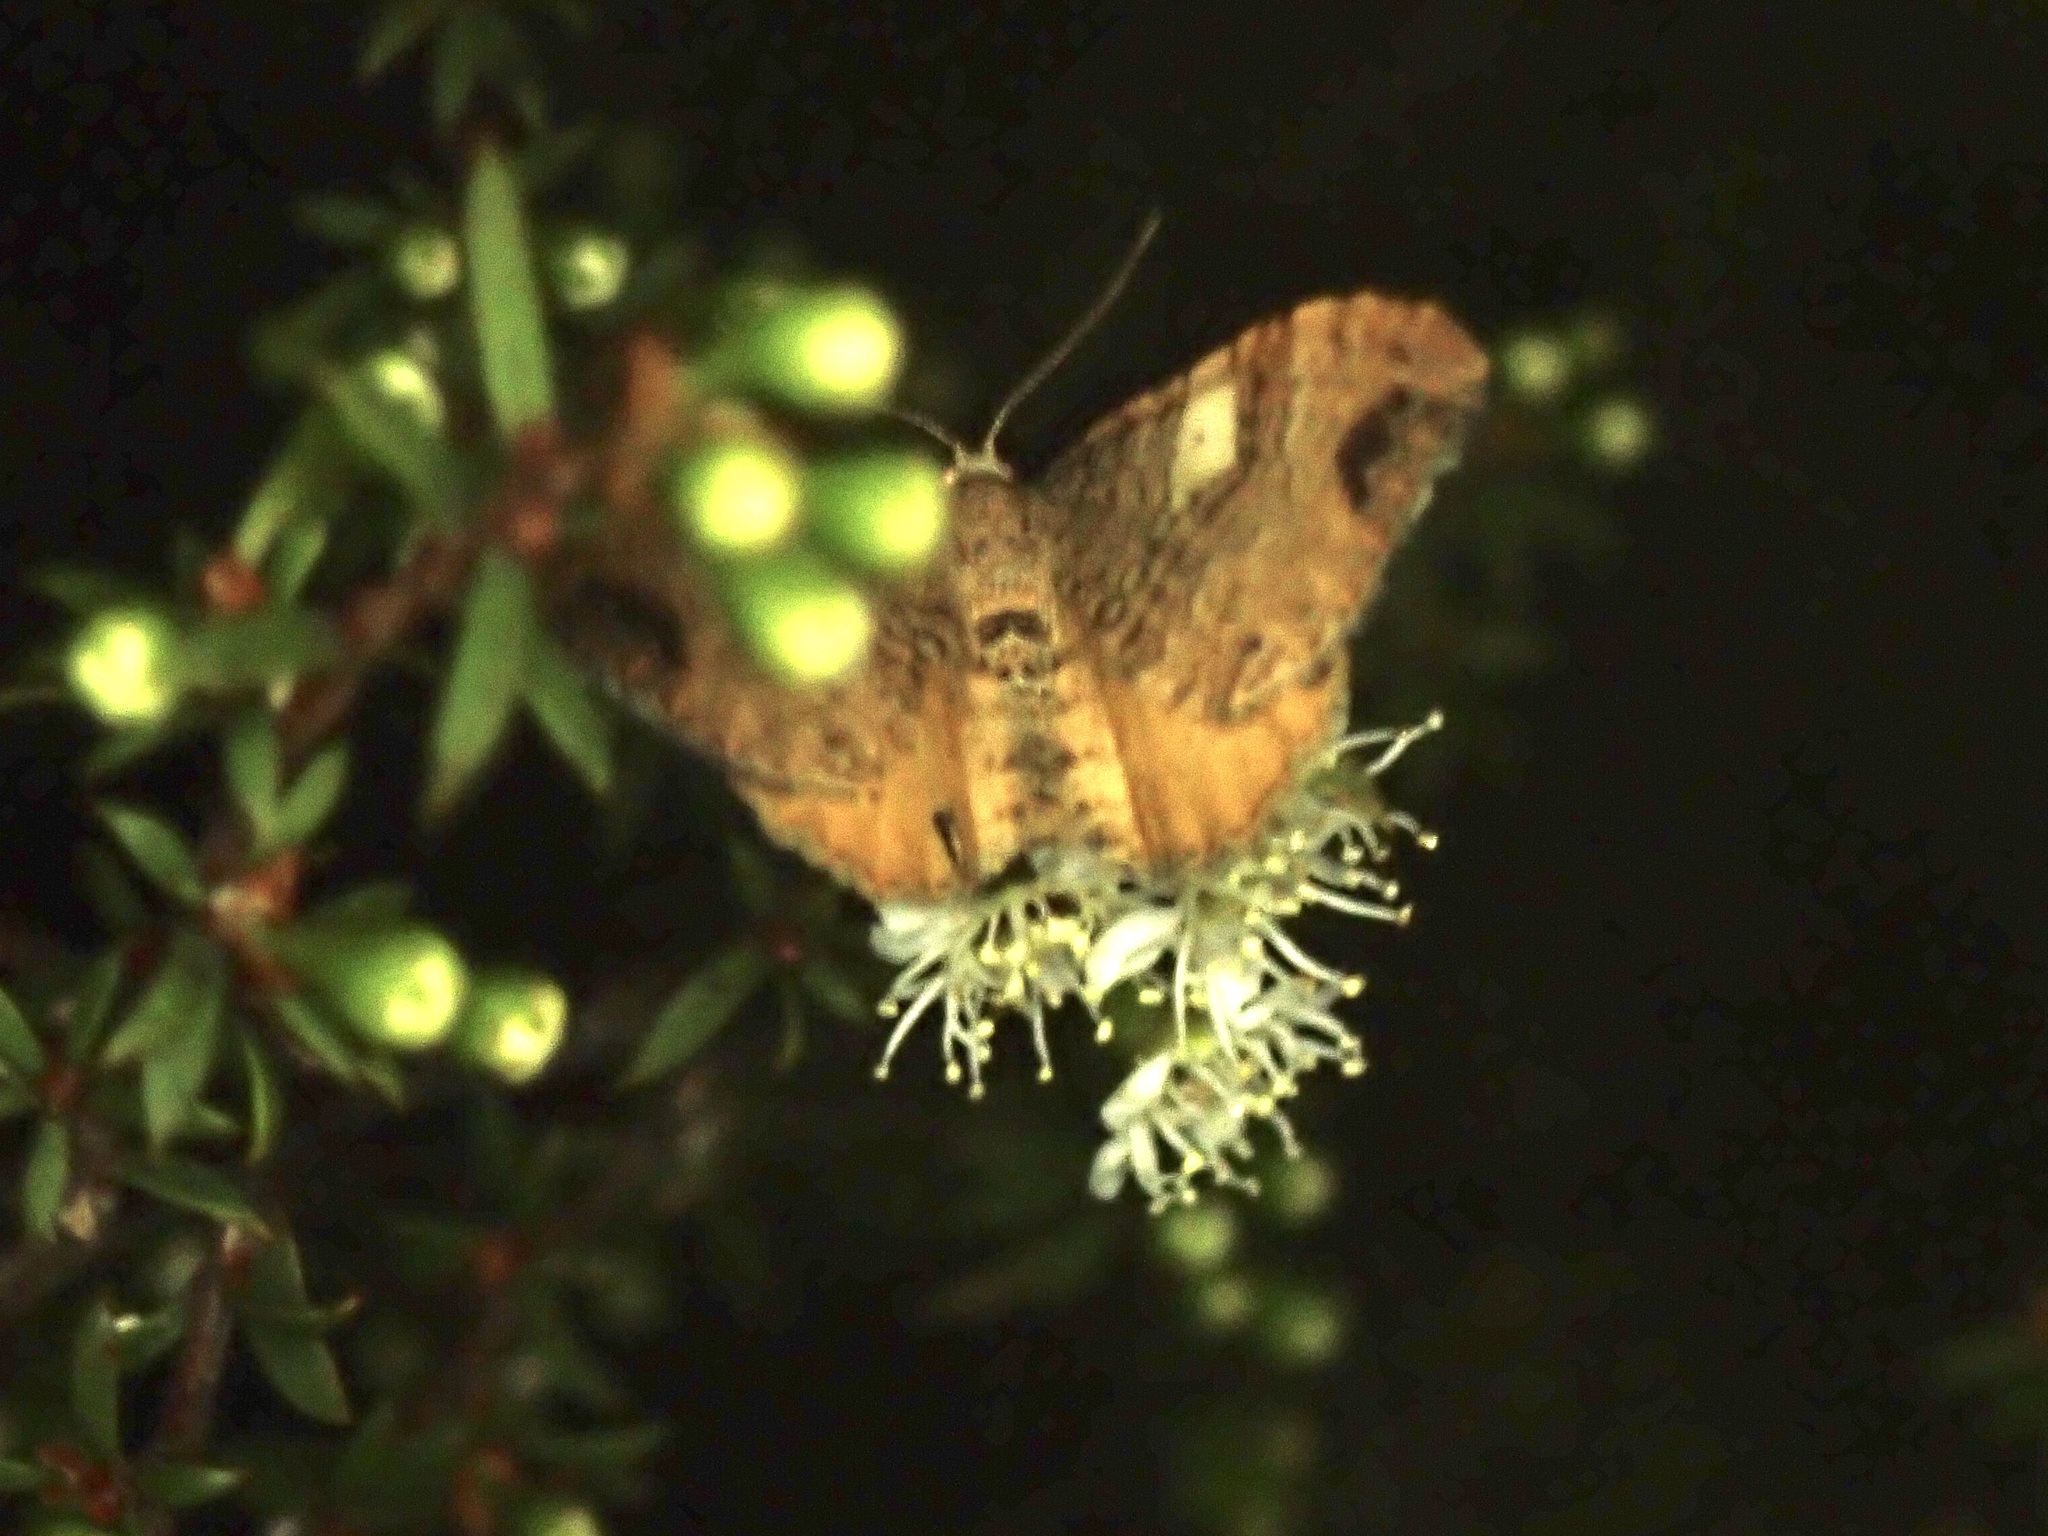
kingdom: Animalia
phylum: Arthropoda
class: Insecta
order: Lepidoptera
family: Geometridae
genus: Homodotis
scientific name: Homodotis megaspilata
